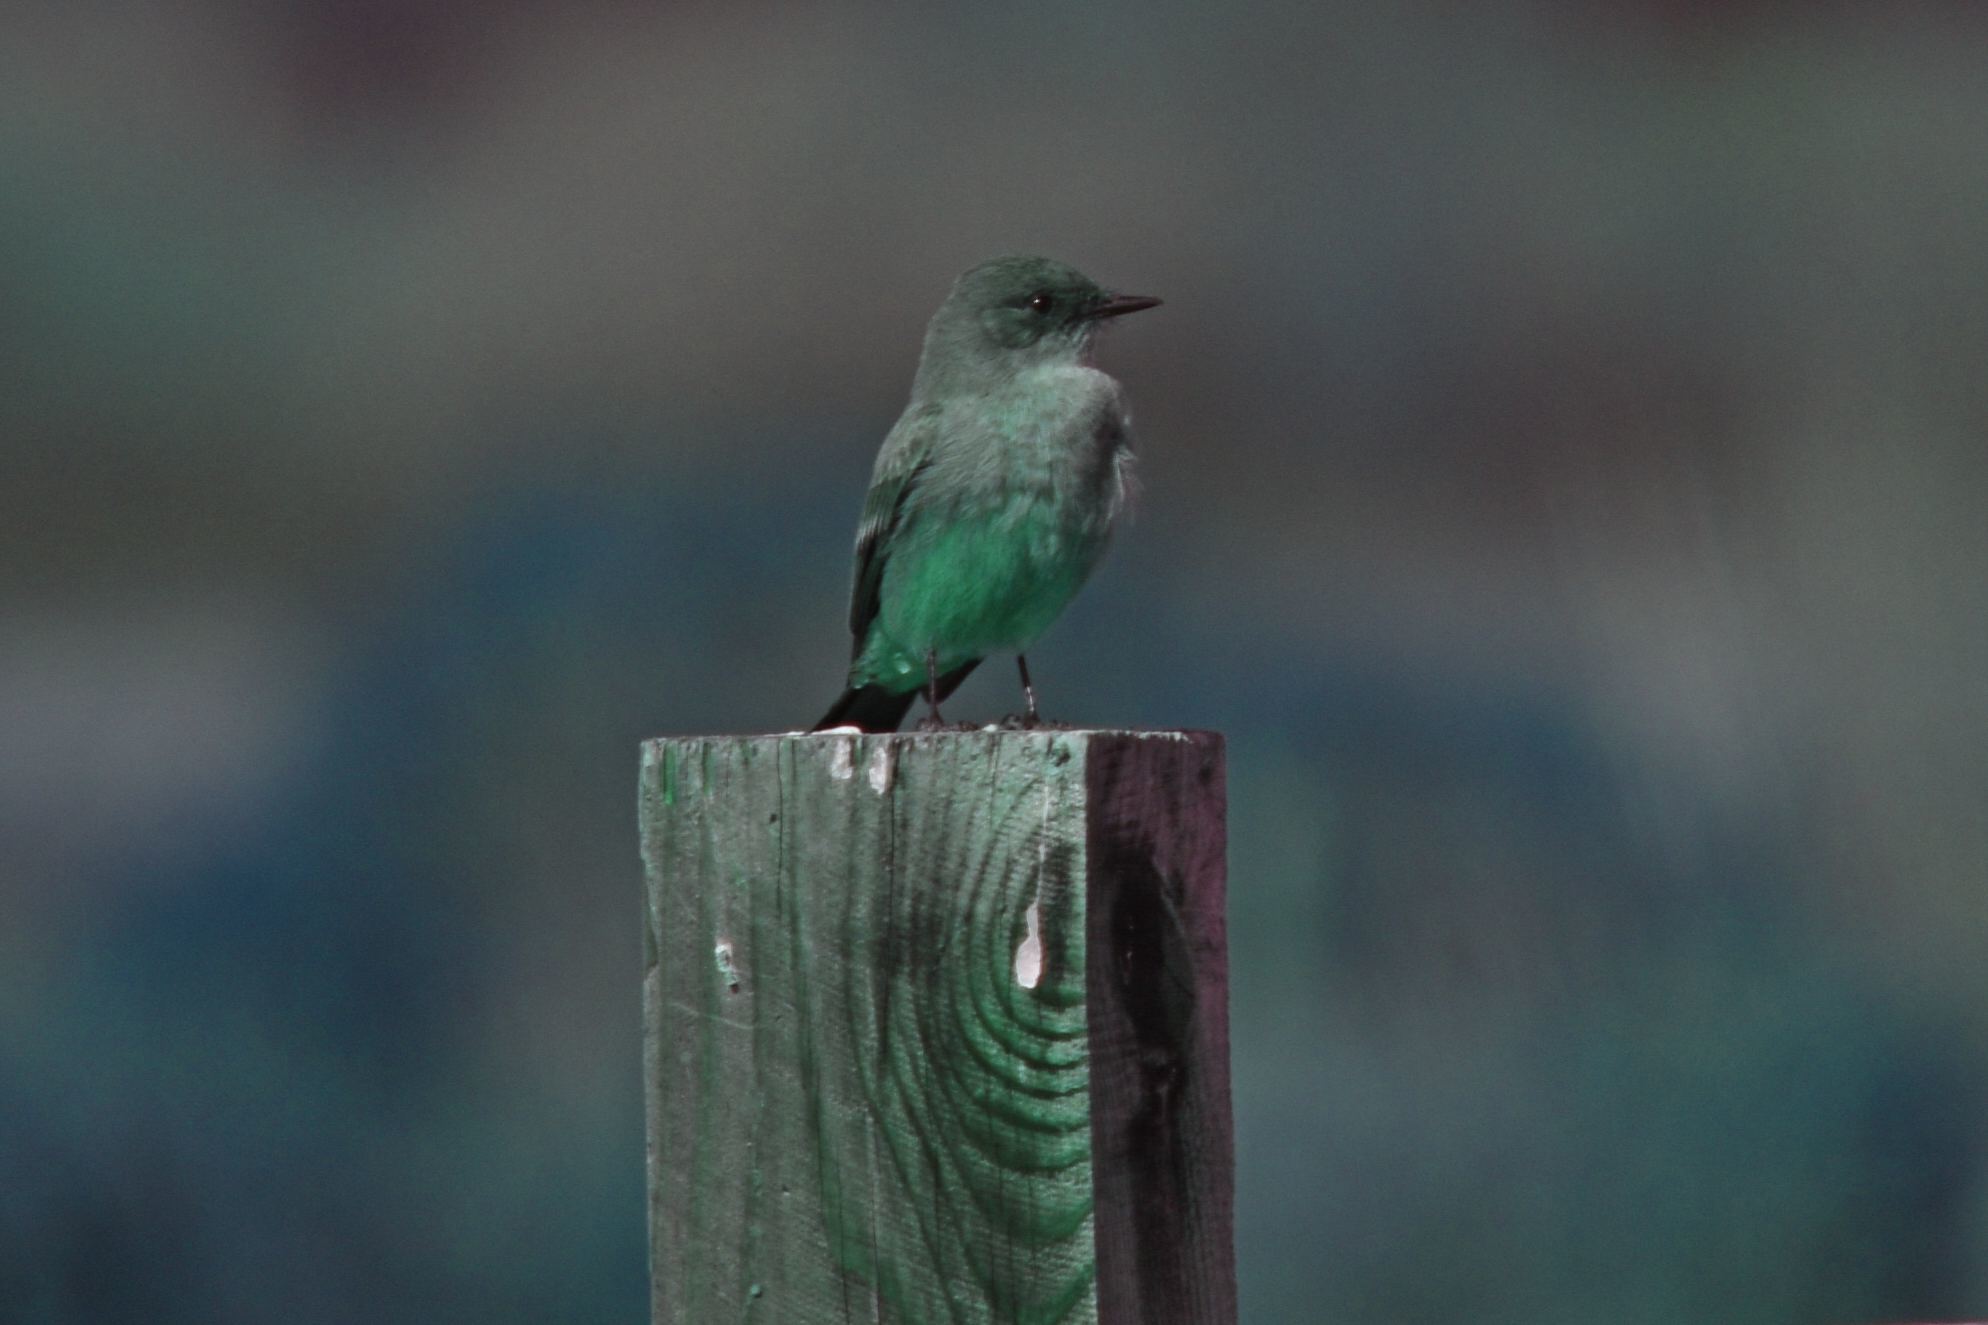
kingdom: Animalia
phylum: Chordata
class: Aves
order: Passeriformes
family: Tyrannidae
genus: Sayornis
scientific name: Sayornis saya
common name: Say's phoebe
